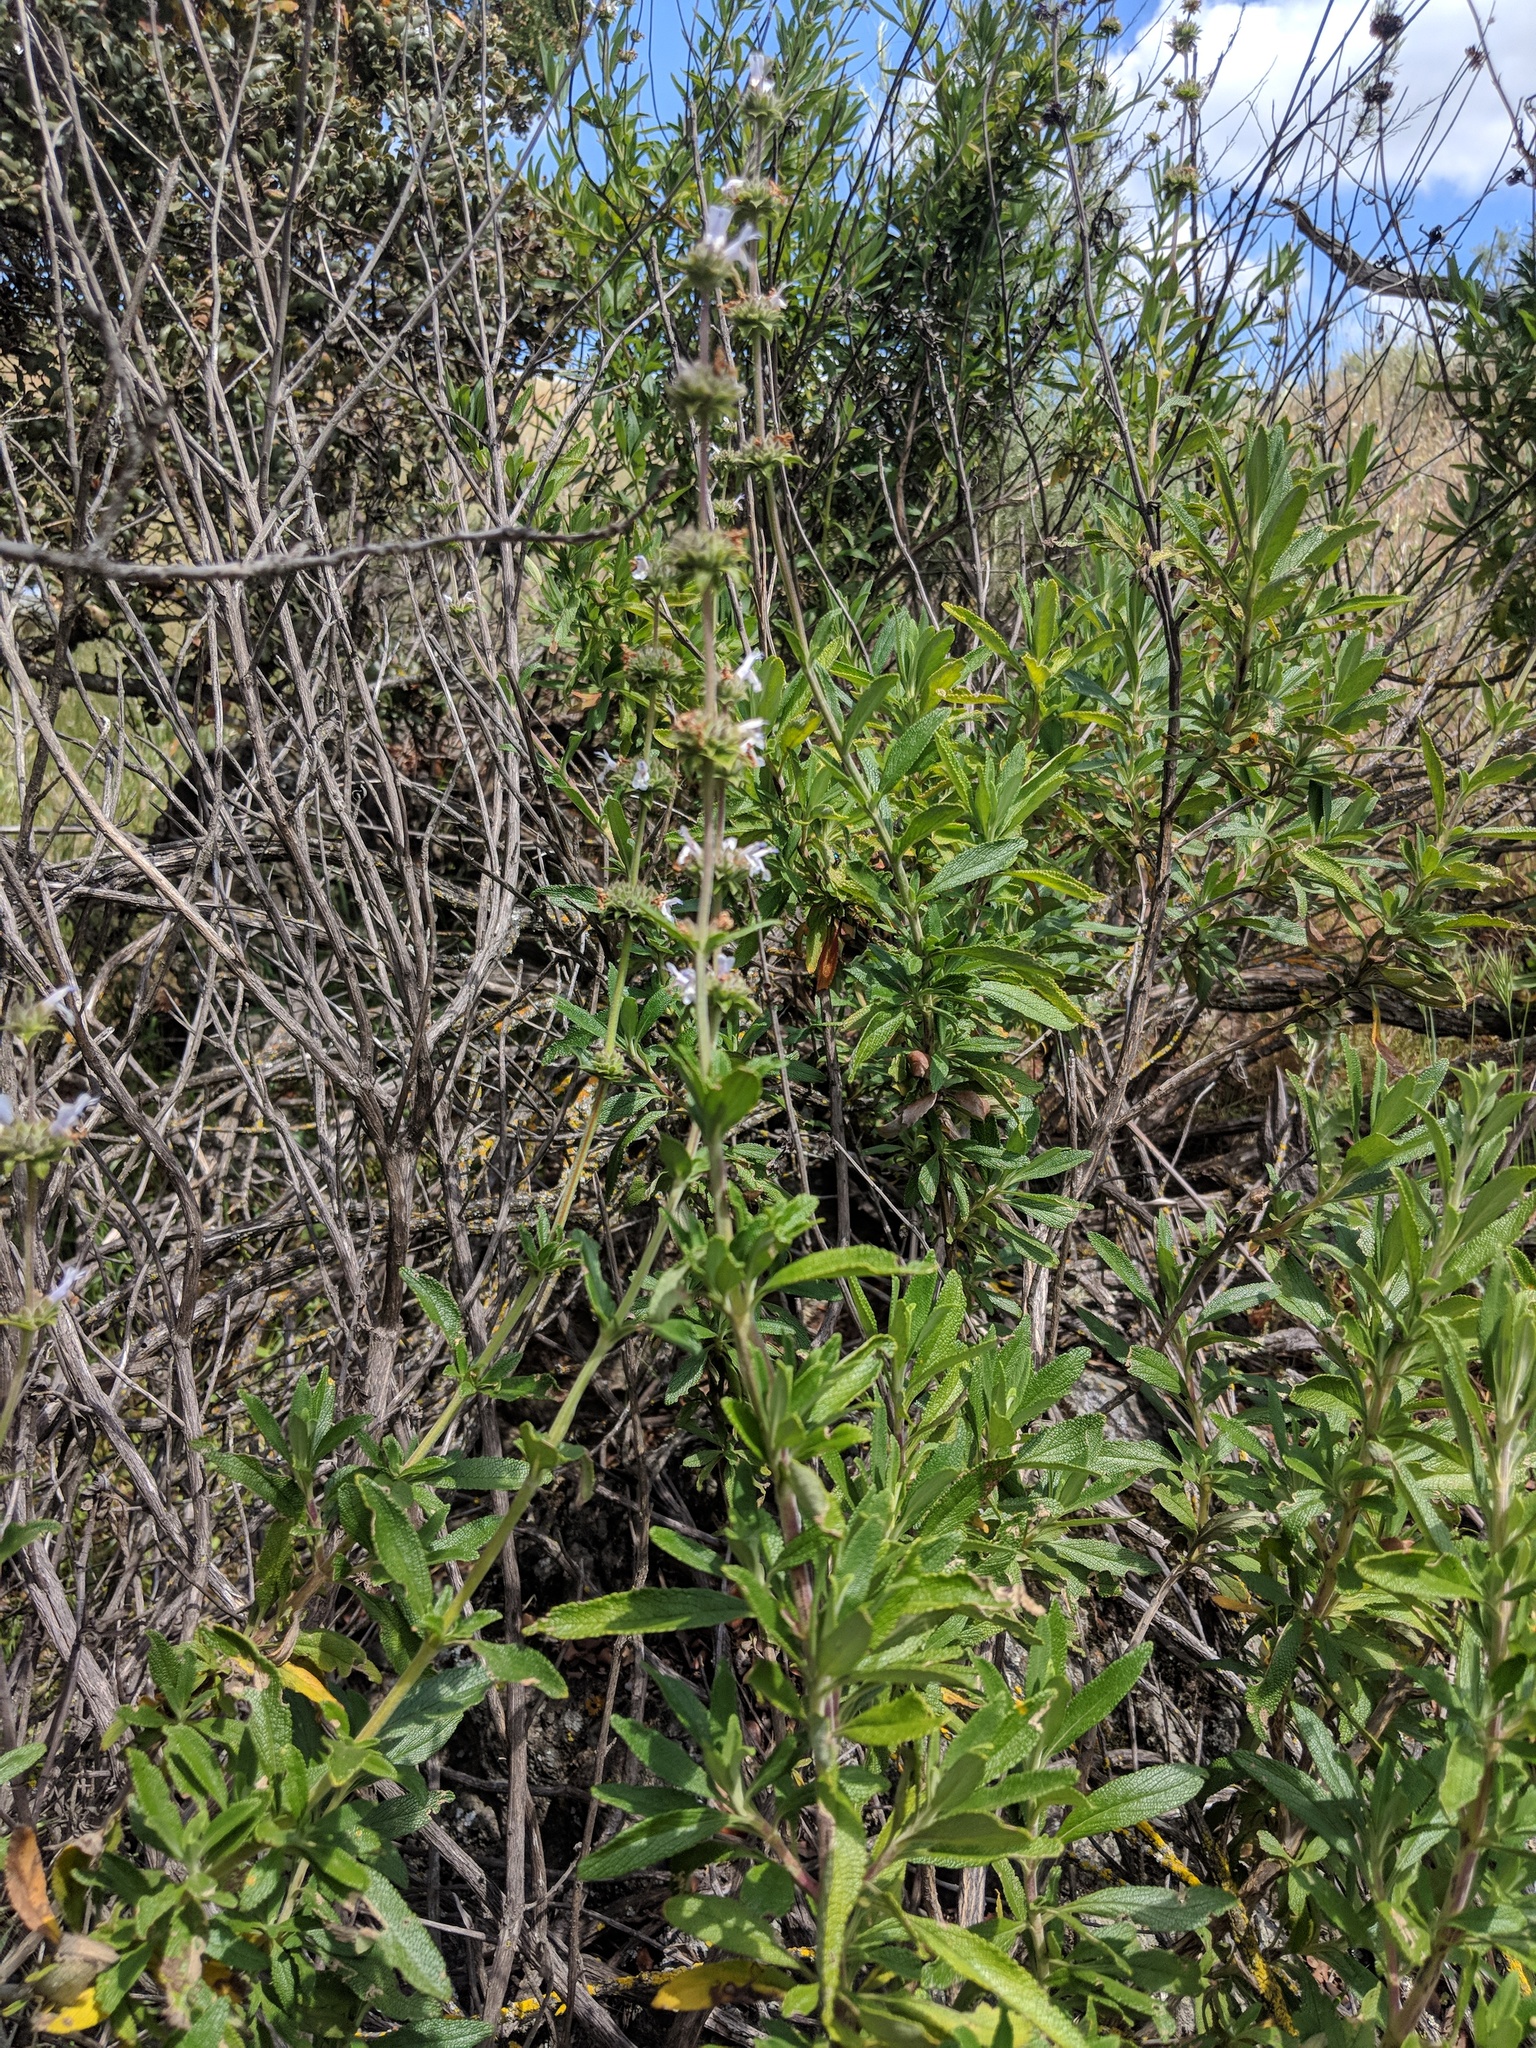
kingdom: Plantae
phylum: Tracheophyta
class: Magnoliopsida
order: Lamiales
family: Lamiaceae
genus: Salvia
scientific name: Salvia mellifera
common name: Black sage
